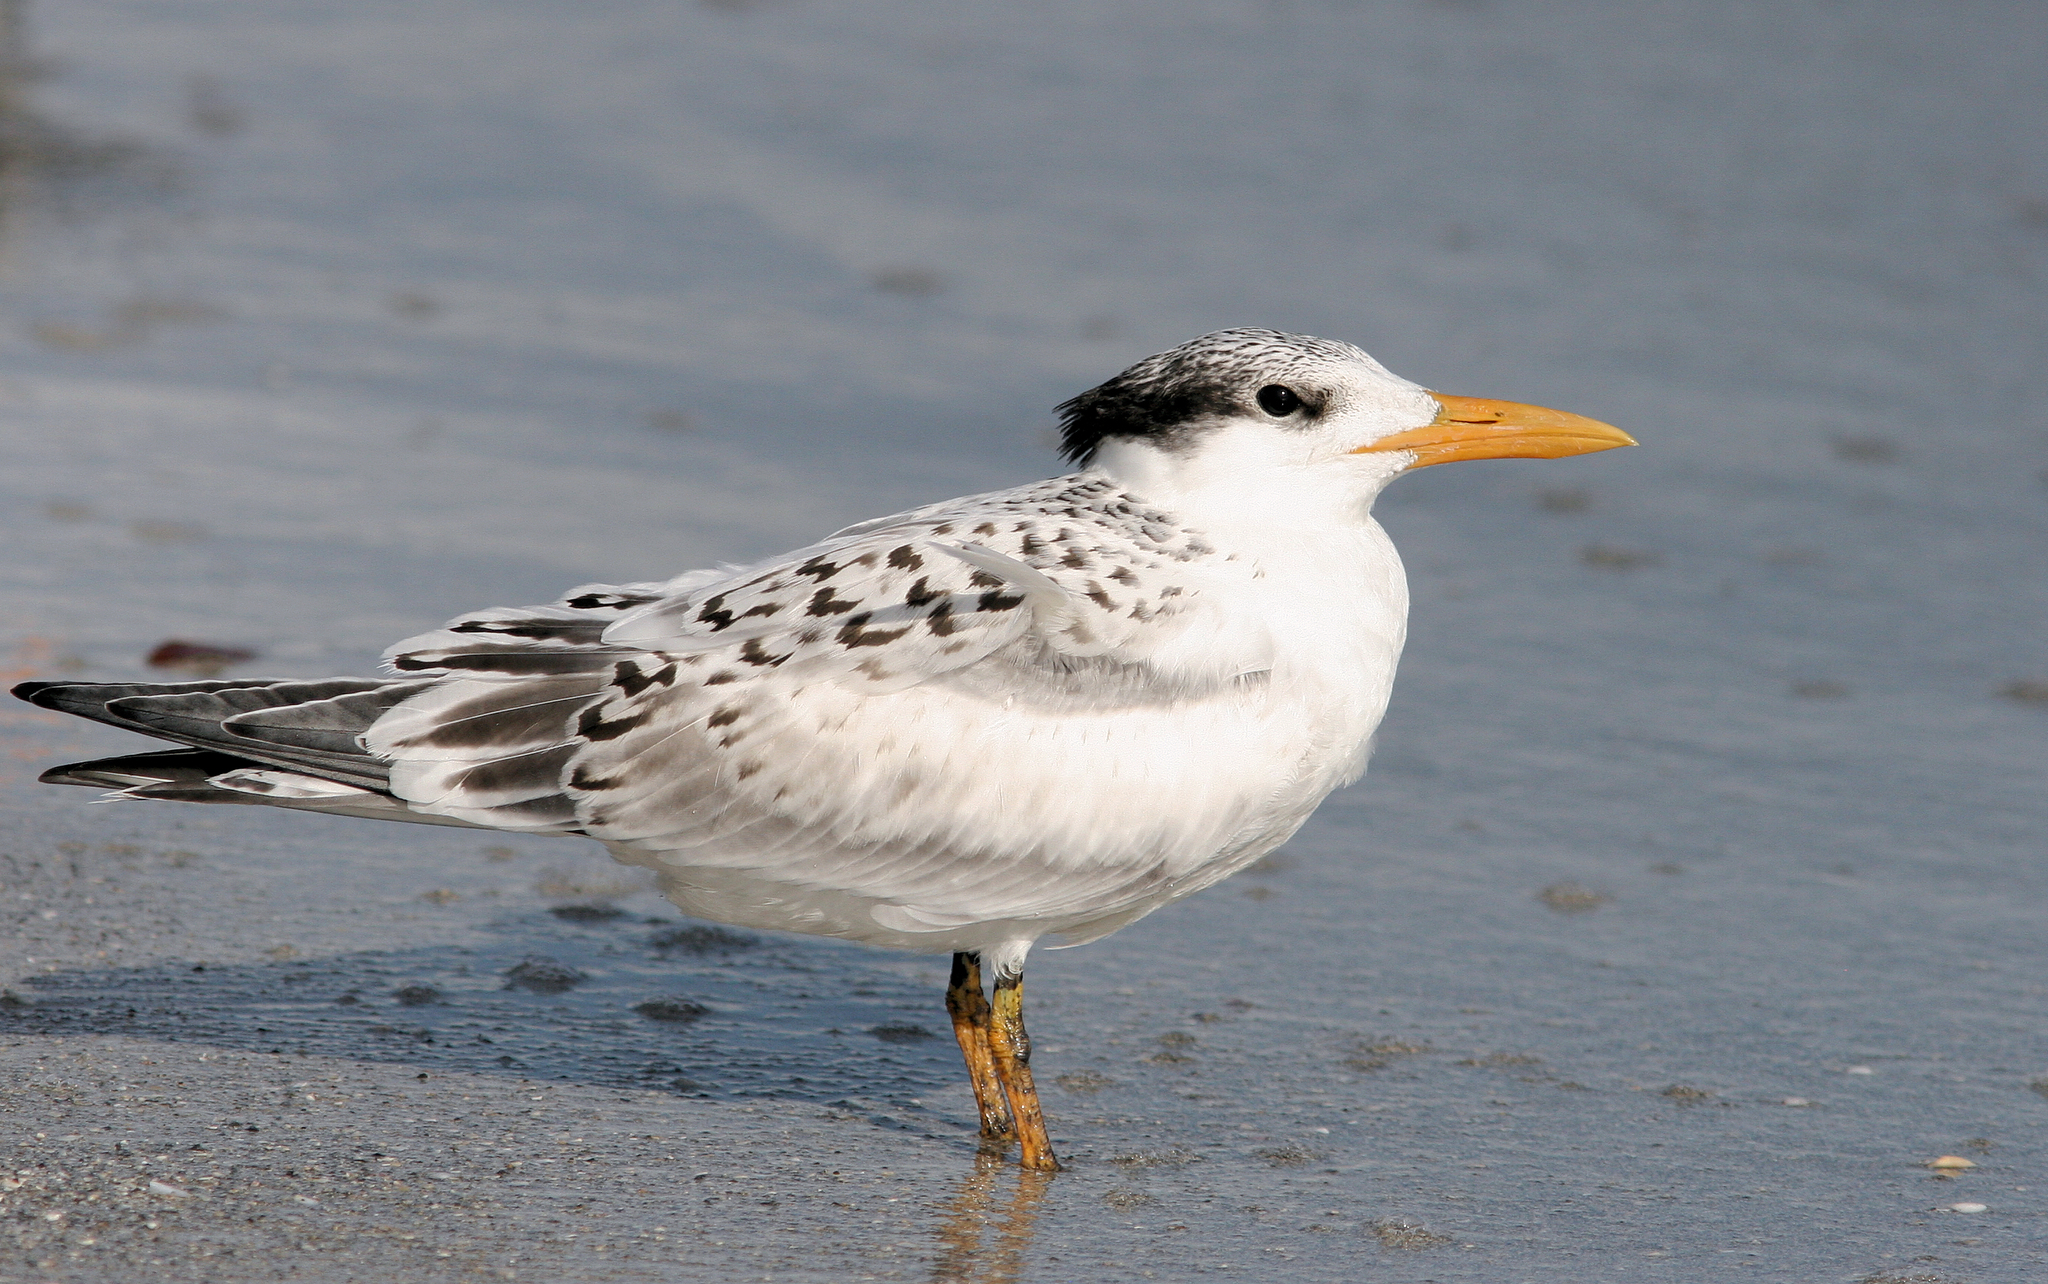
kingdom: Animalia
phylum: Chordata
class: Aves
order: Charadriiformes
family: Laridae
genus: Thalasseus
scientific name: Thalasseus maximus
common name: Royal tern
